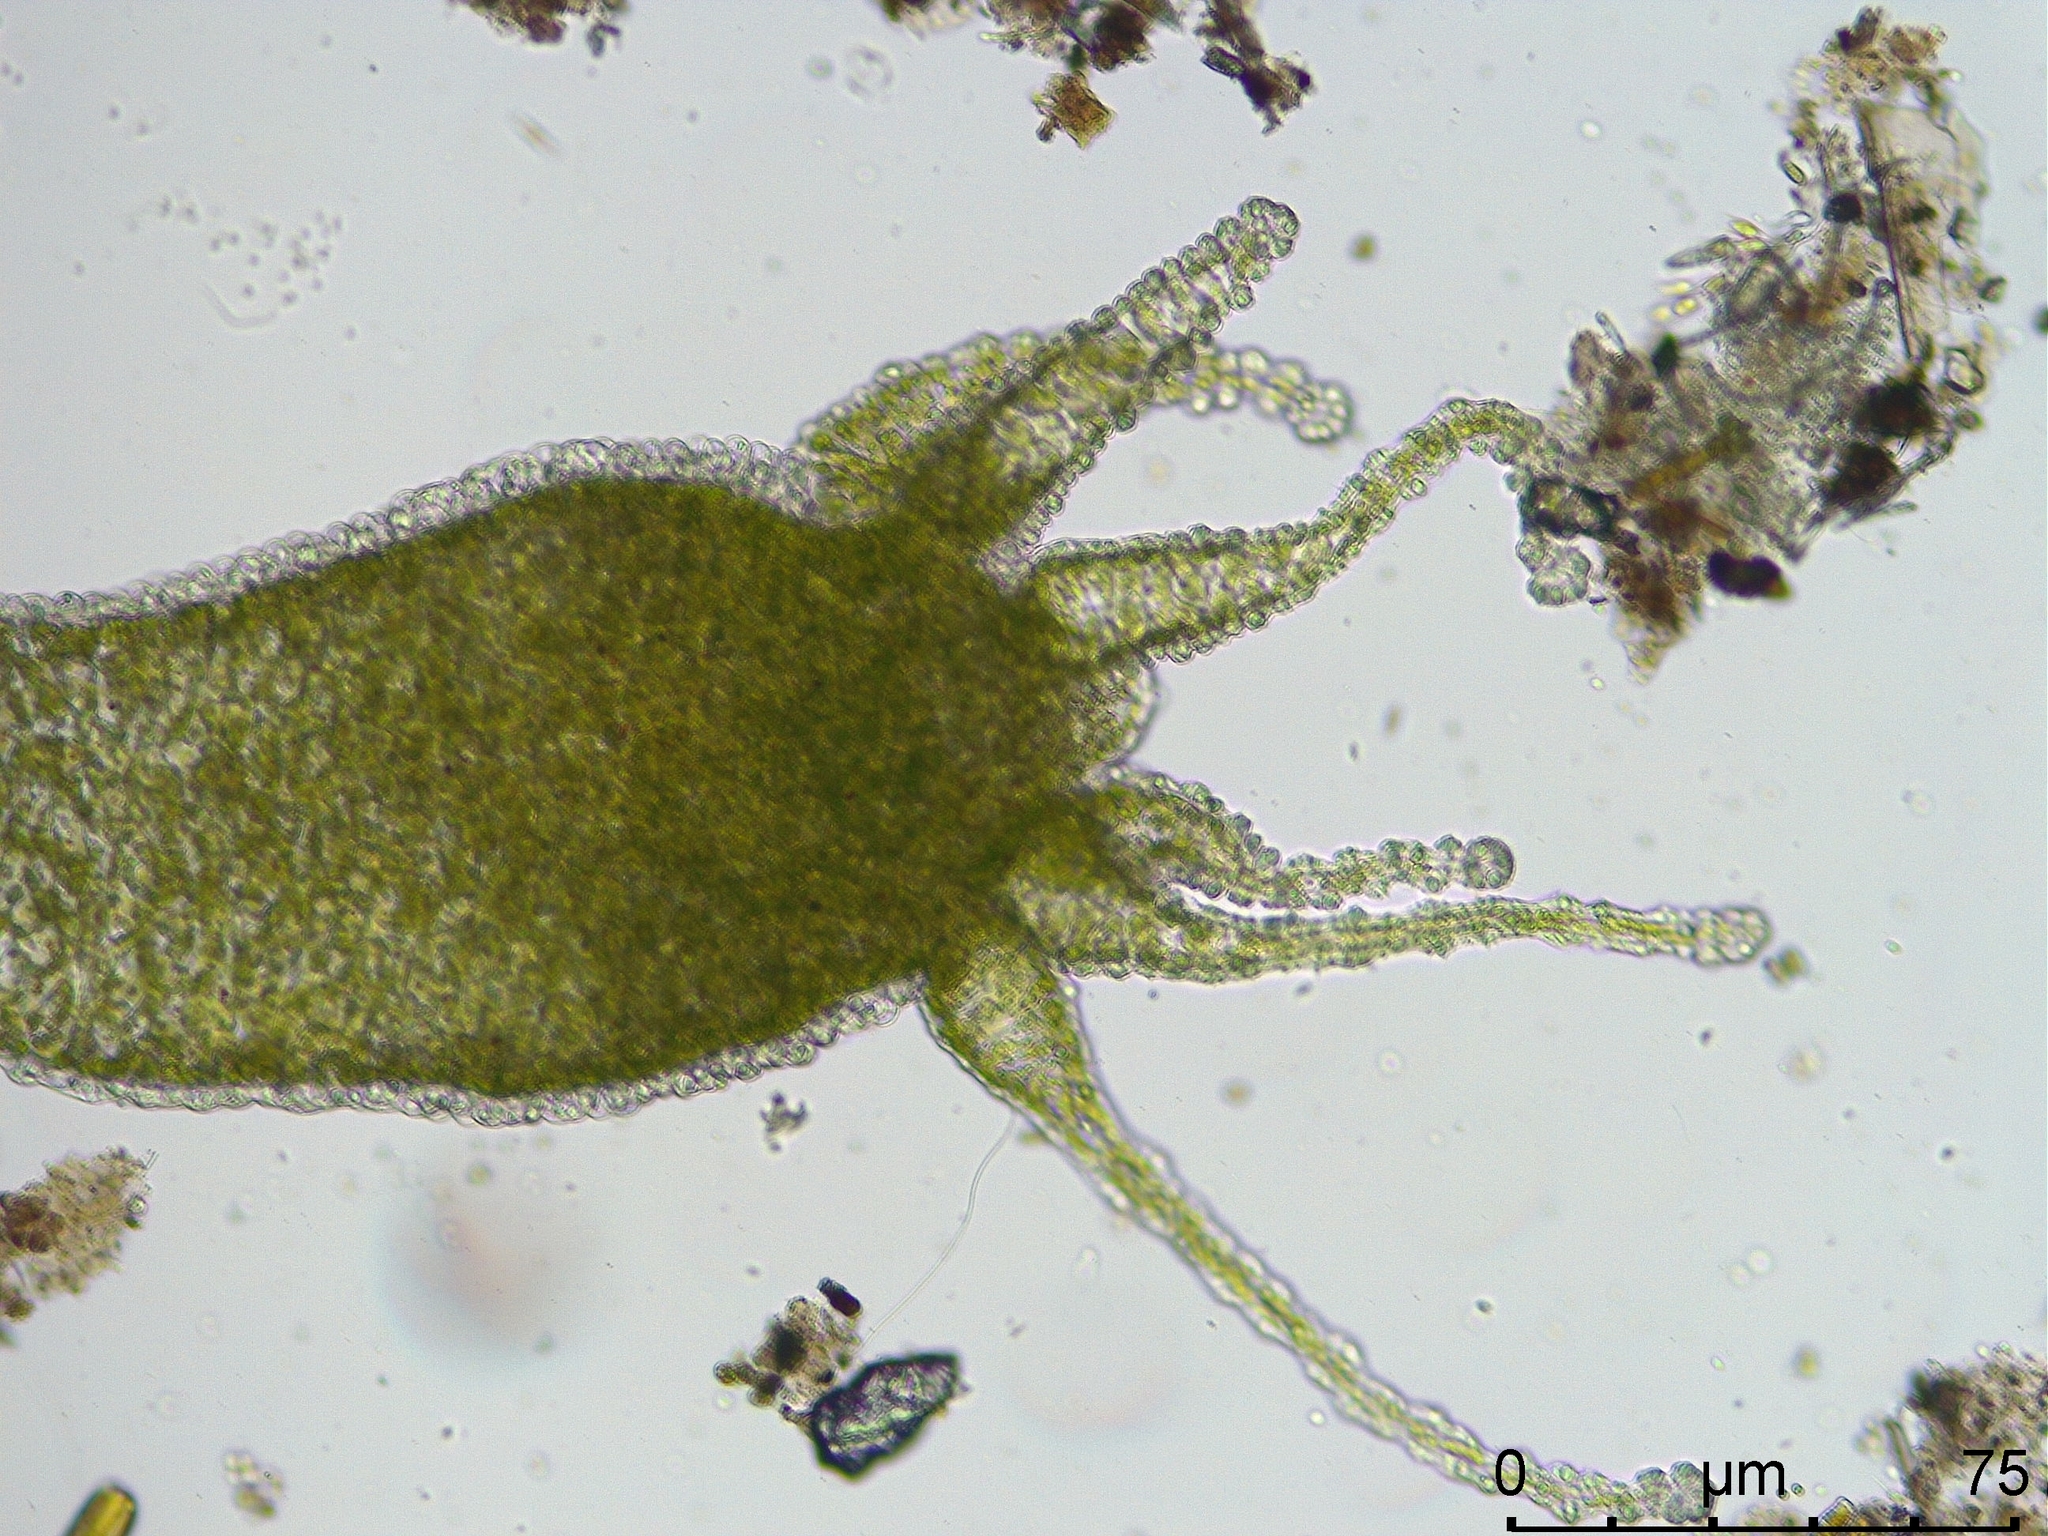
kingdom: Animalia
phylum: Cnidaria
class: Hydrozoa
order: Anthoathecata
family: Hydridae
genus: Hydra
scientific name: Hydra viridissima
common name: Green hydra
